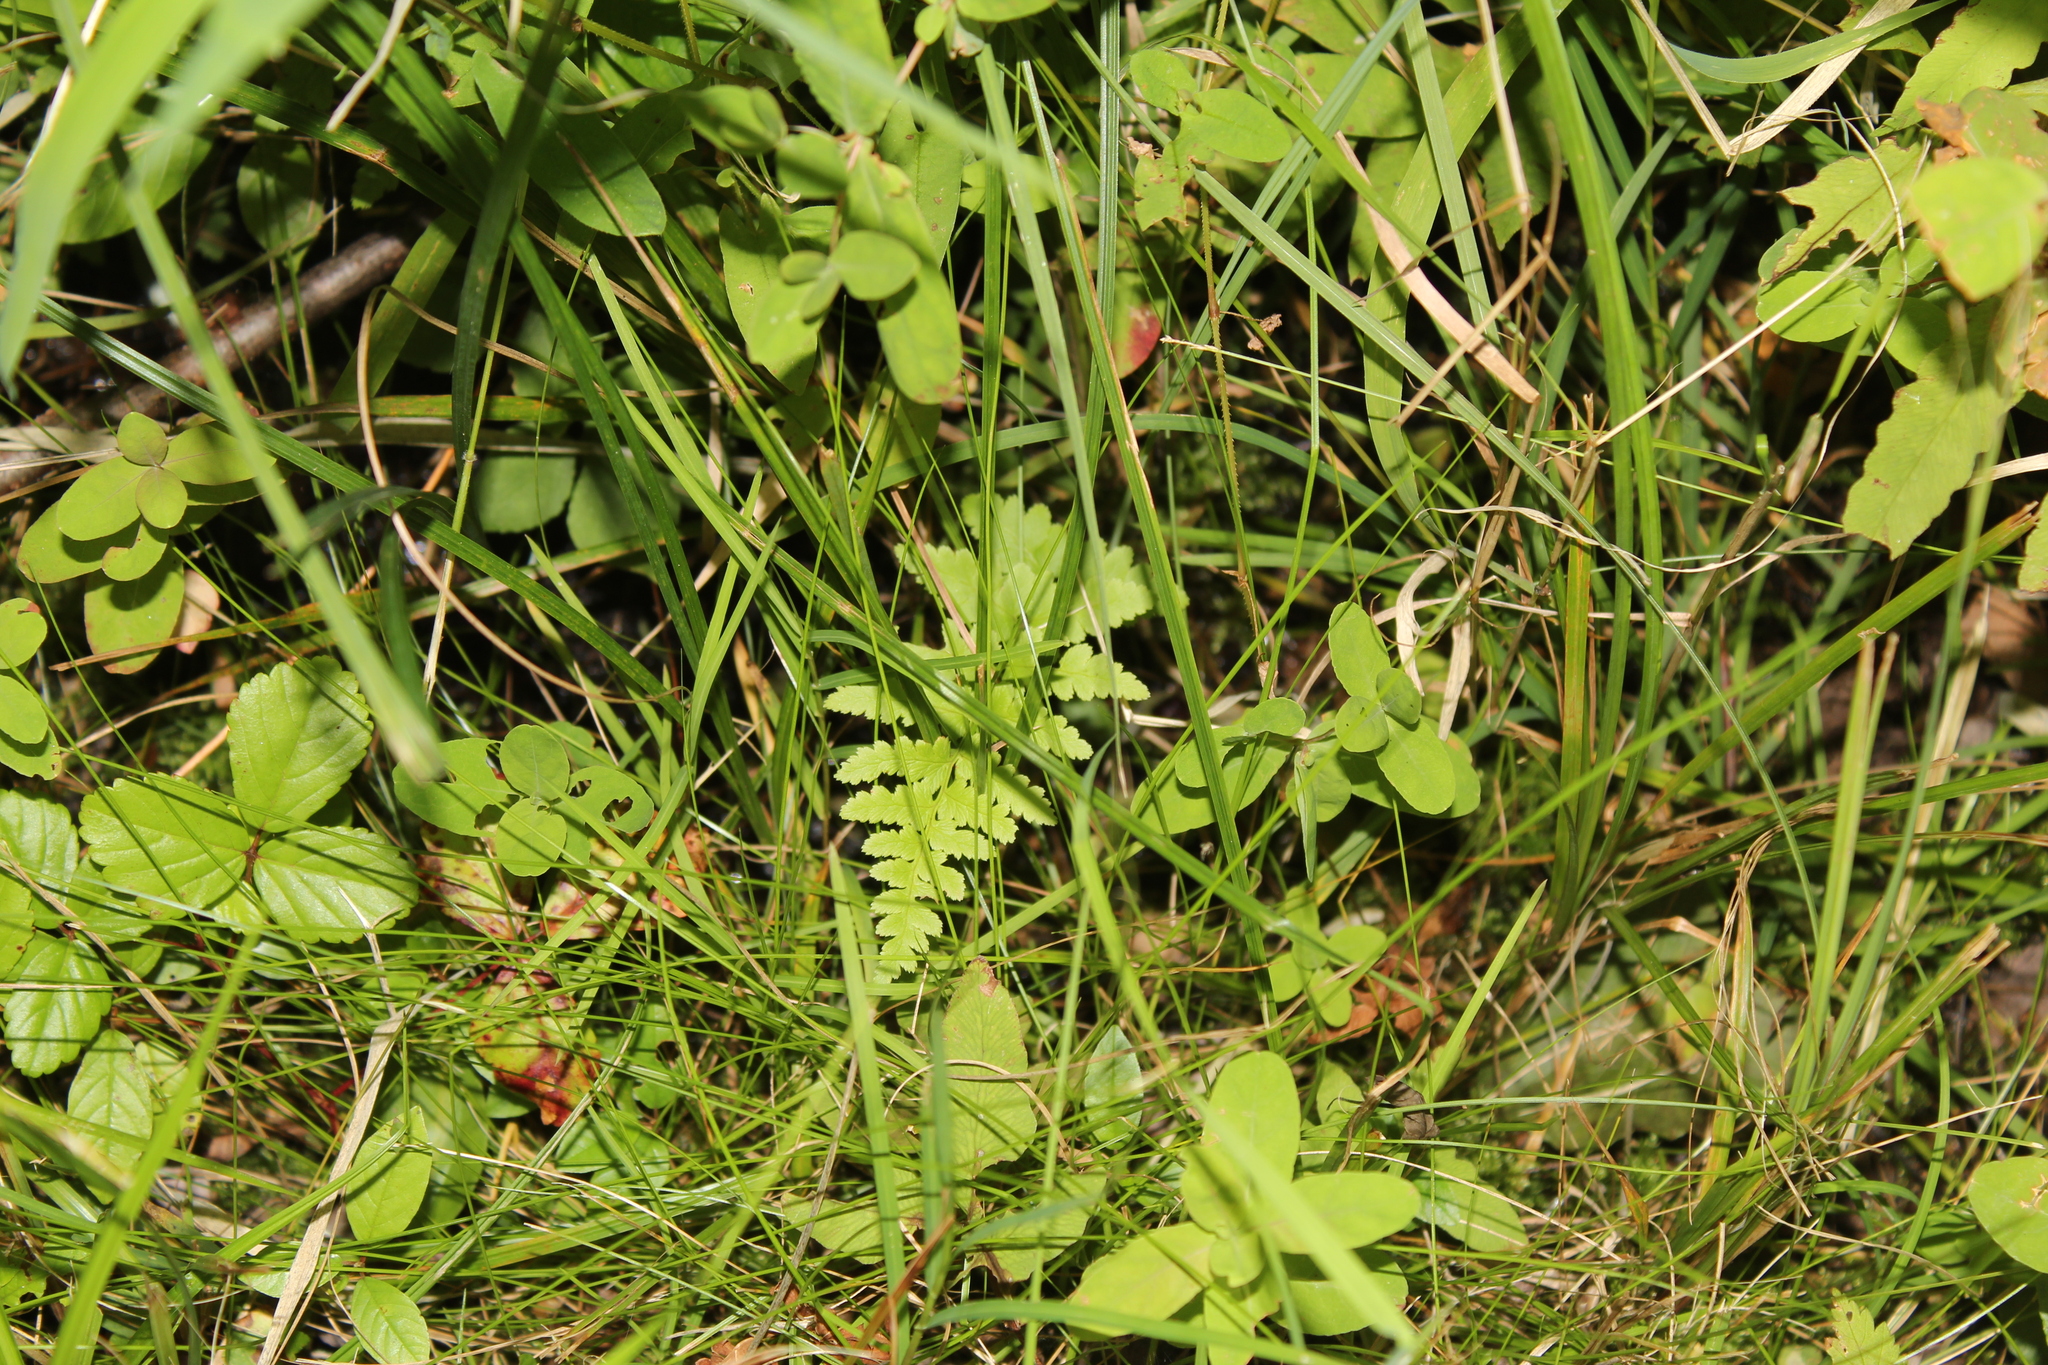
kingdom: Plantae
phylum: Tracheophyta
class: Polypodiopsida
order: Polypodiales
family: Dryopteridaceae
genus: Dryopteris
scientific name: Dryopteris cristata
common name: Crested wood fern
